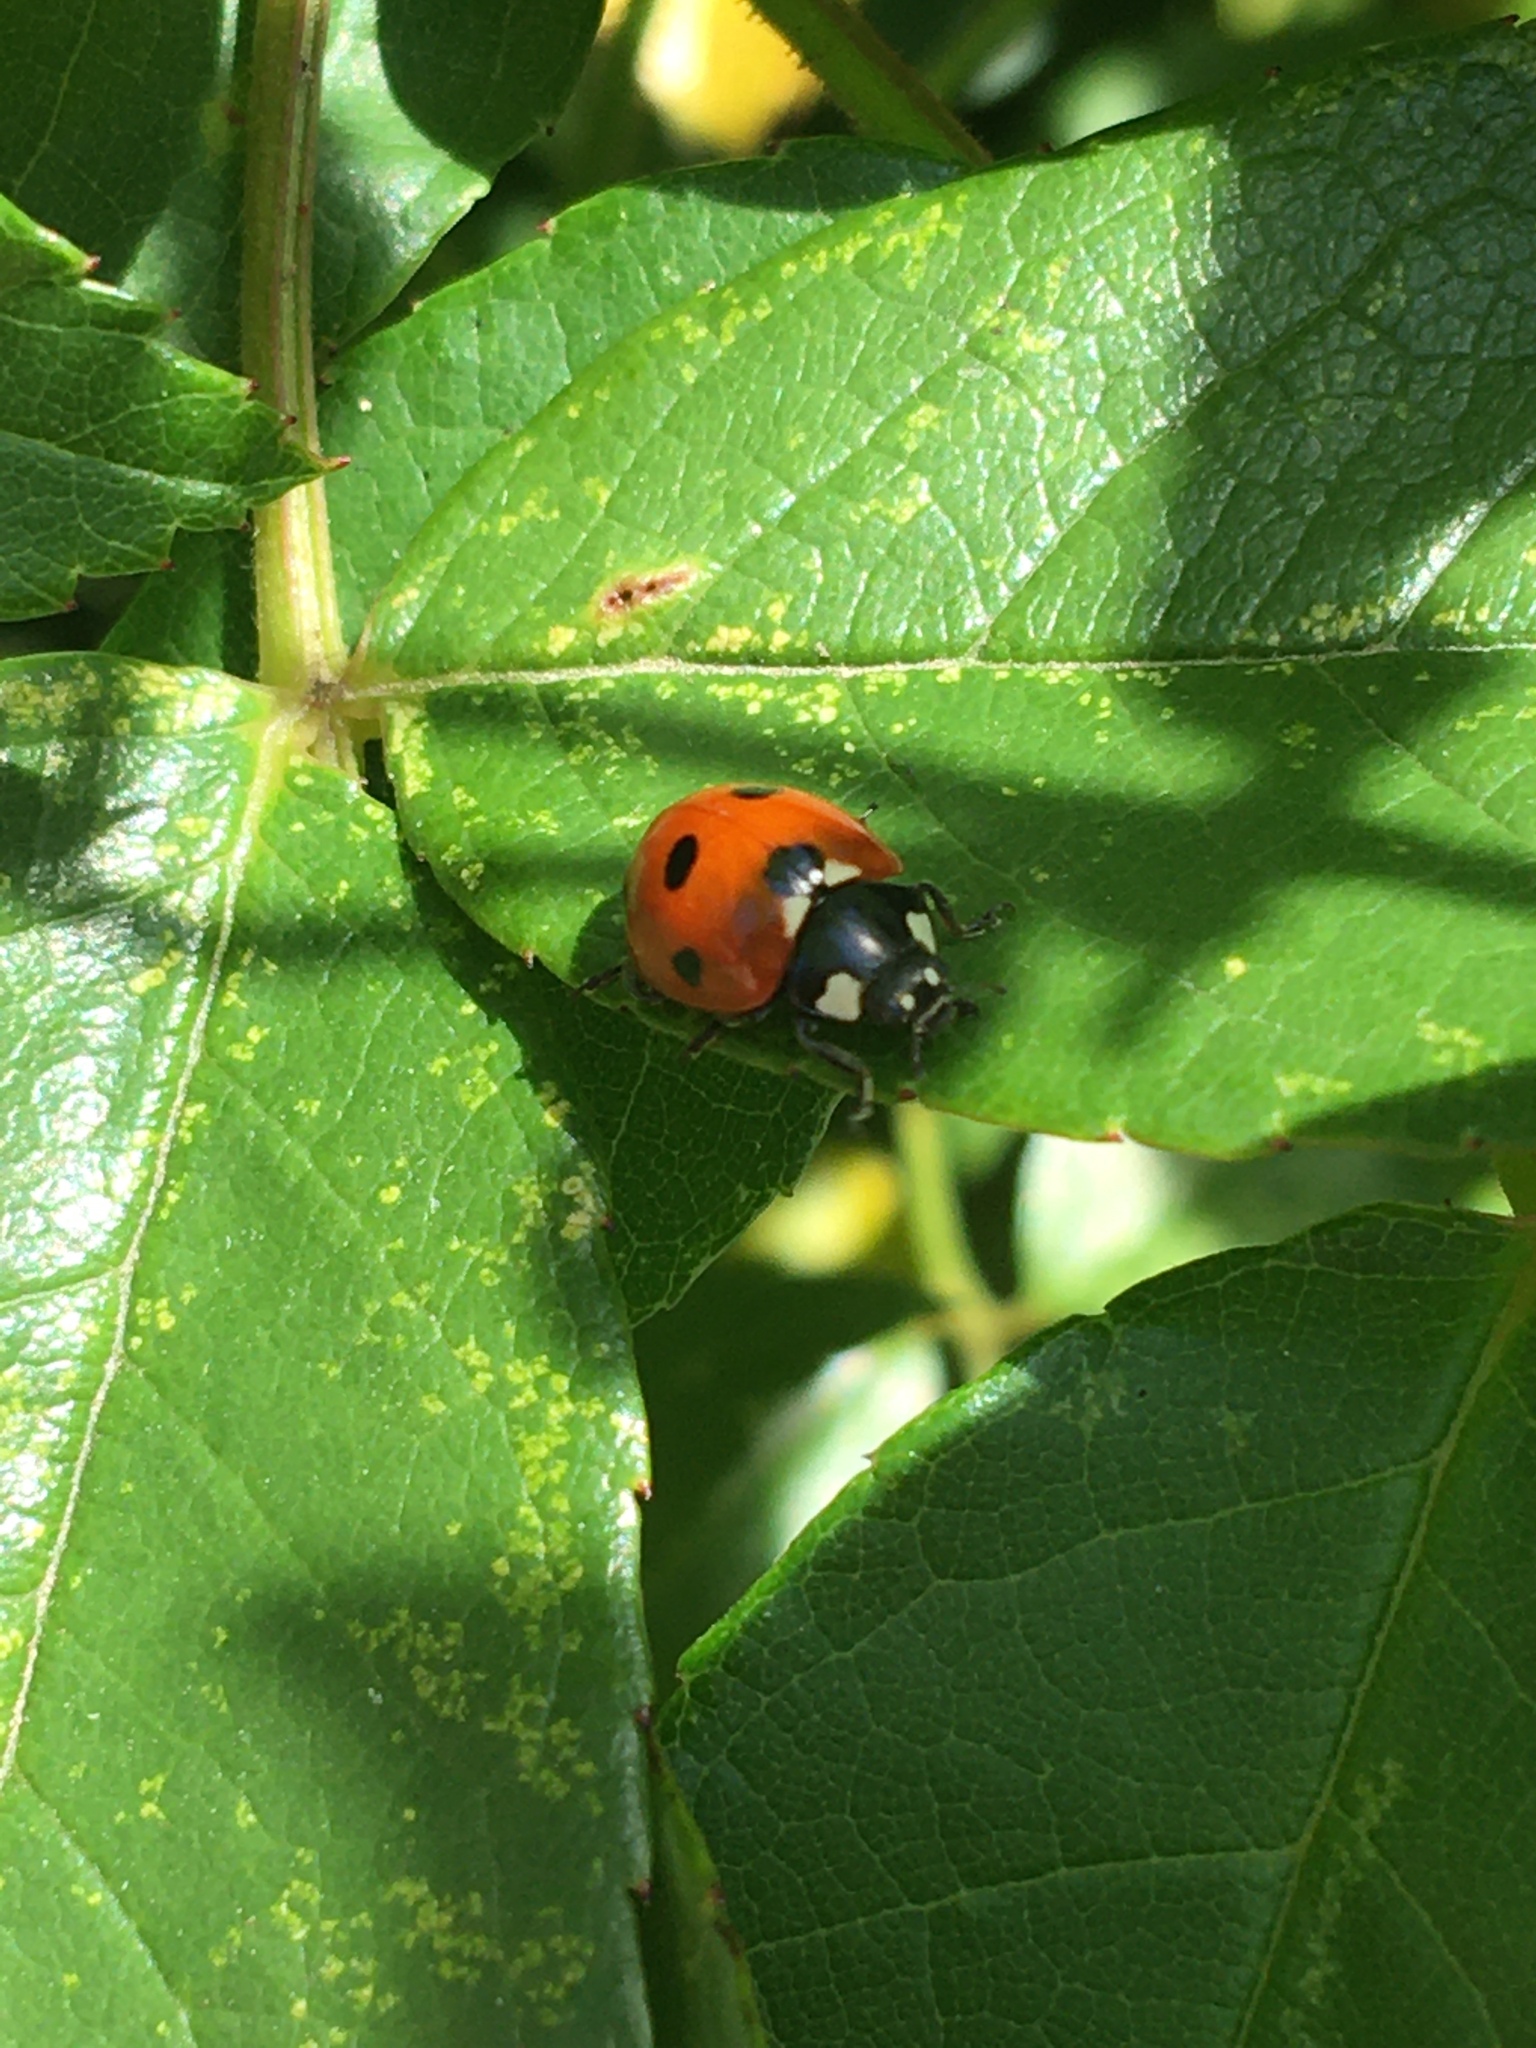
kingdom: Animalia
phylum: Arthropoda
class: Insecta
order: Coleoptera
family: Coccinellidae
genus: Coccinella
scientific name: Coccinella septempunctata
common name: Sevenspotted lady beetle
